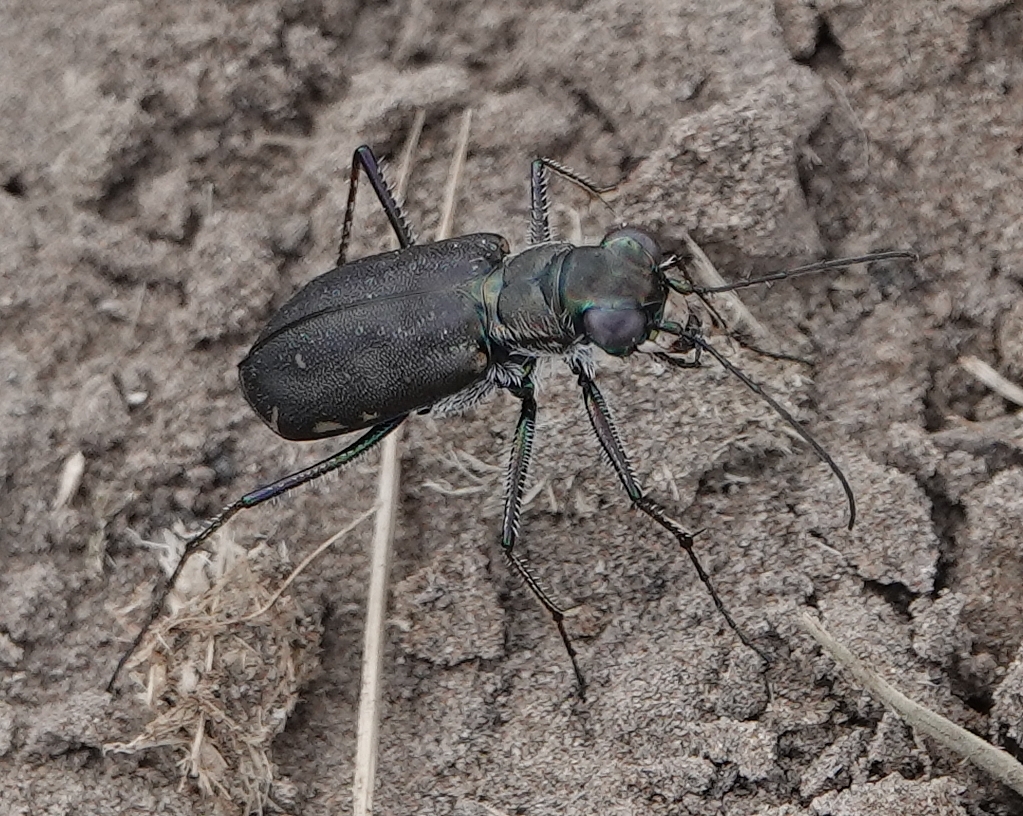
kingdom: Animalia
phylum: Arthropoda
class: Insecta
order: Coleoptera
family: Carabidae
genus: Cicindela
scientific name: Cicindela punctulata
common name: Punctured tiger beetle
